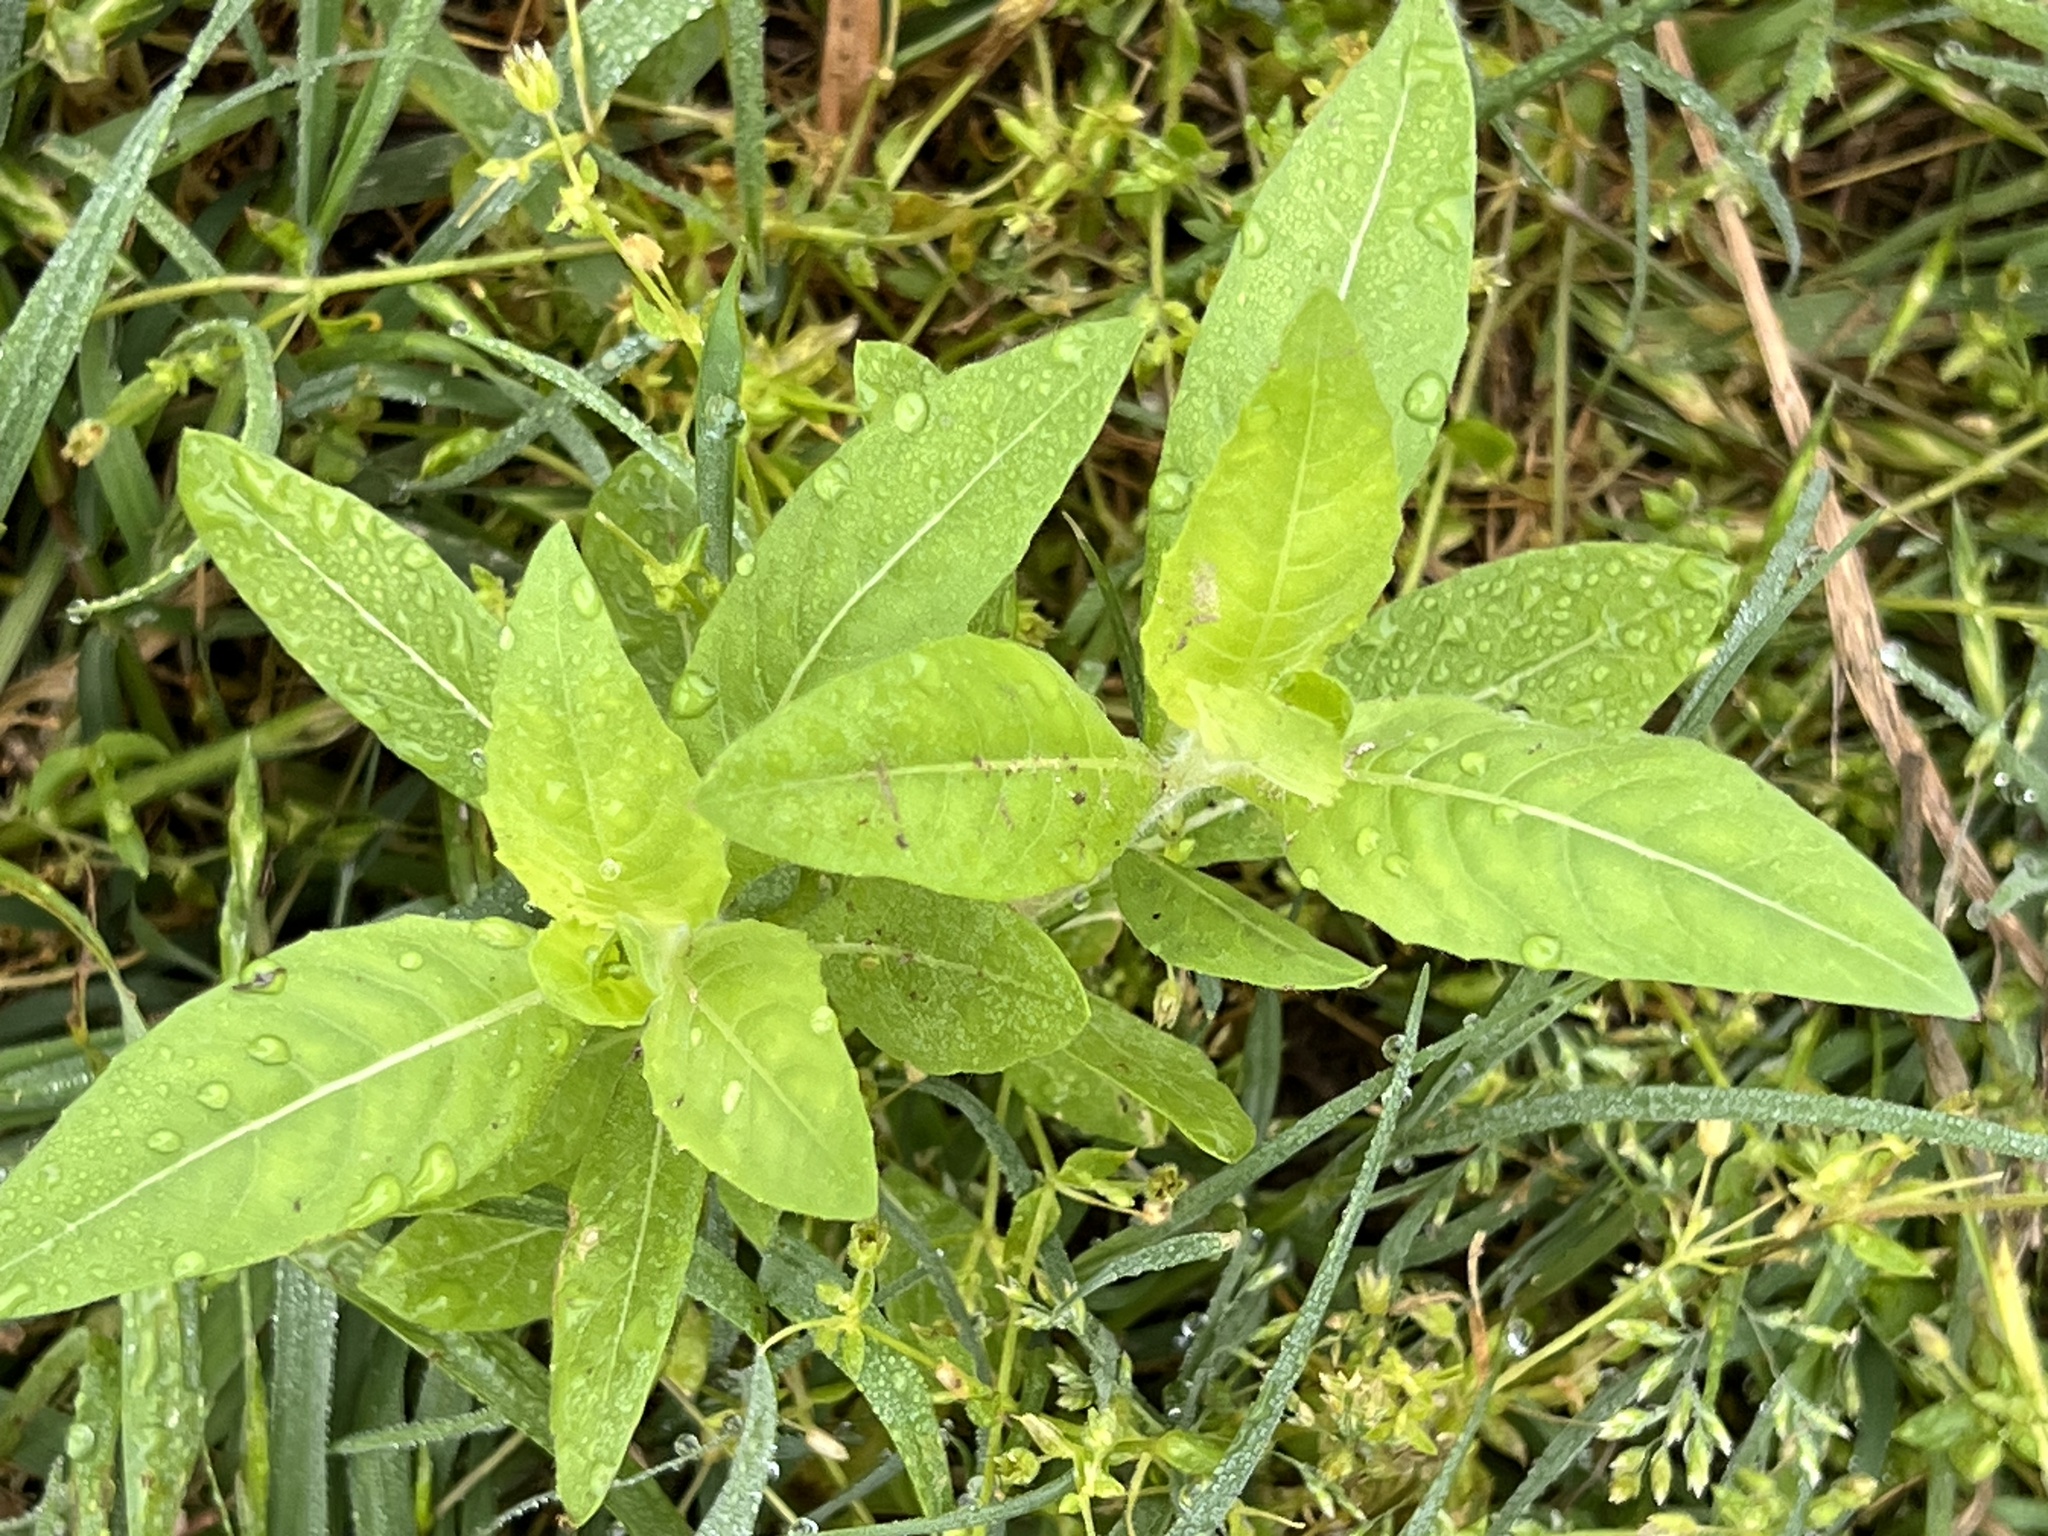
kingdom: Plantae
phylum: Tracheophyta
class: Magnoliopsida
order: Myrtales
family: Onagraceae
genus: Oenothera
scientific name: Oenothera curtiflora
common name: Velvetweed
